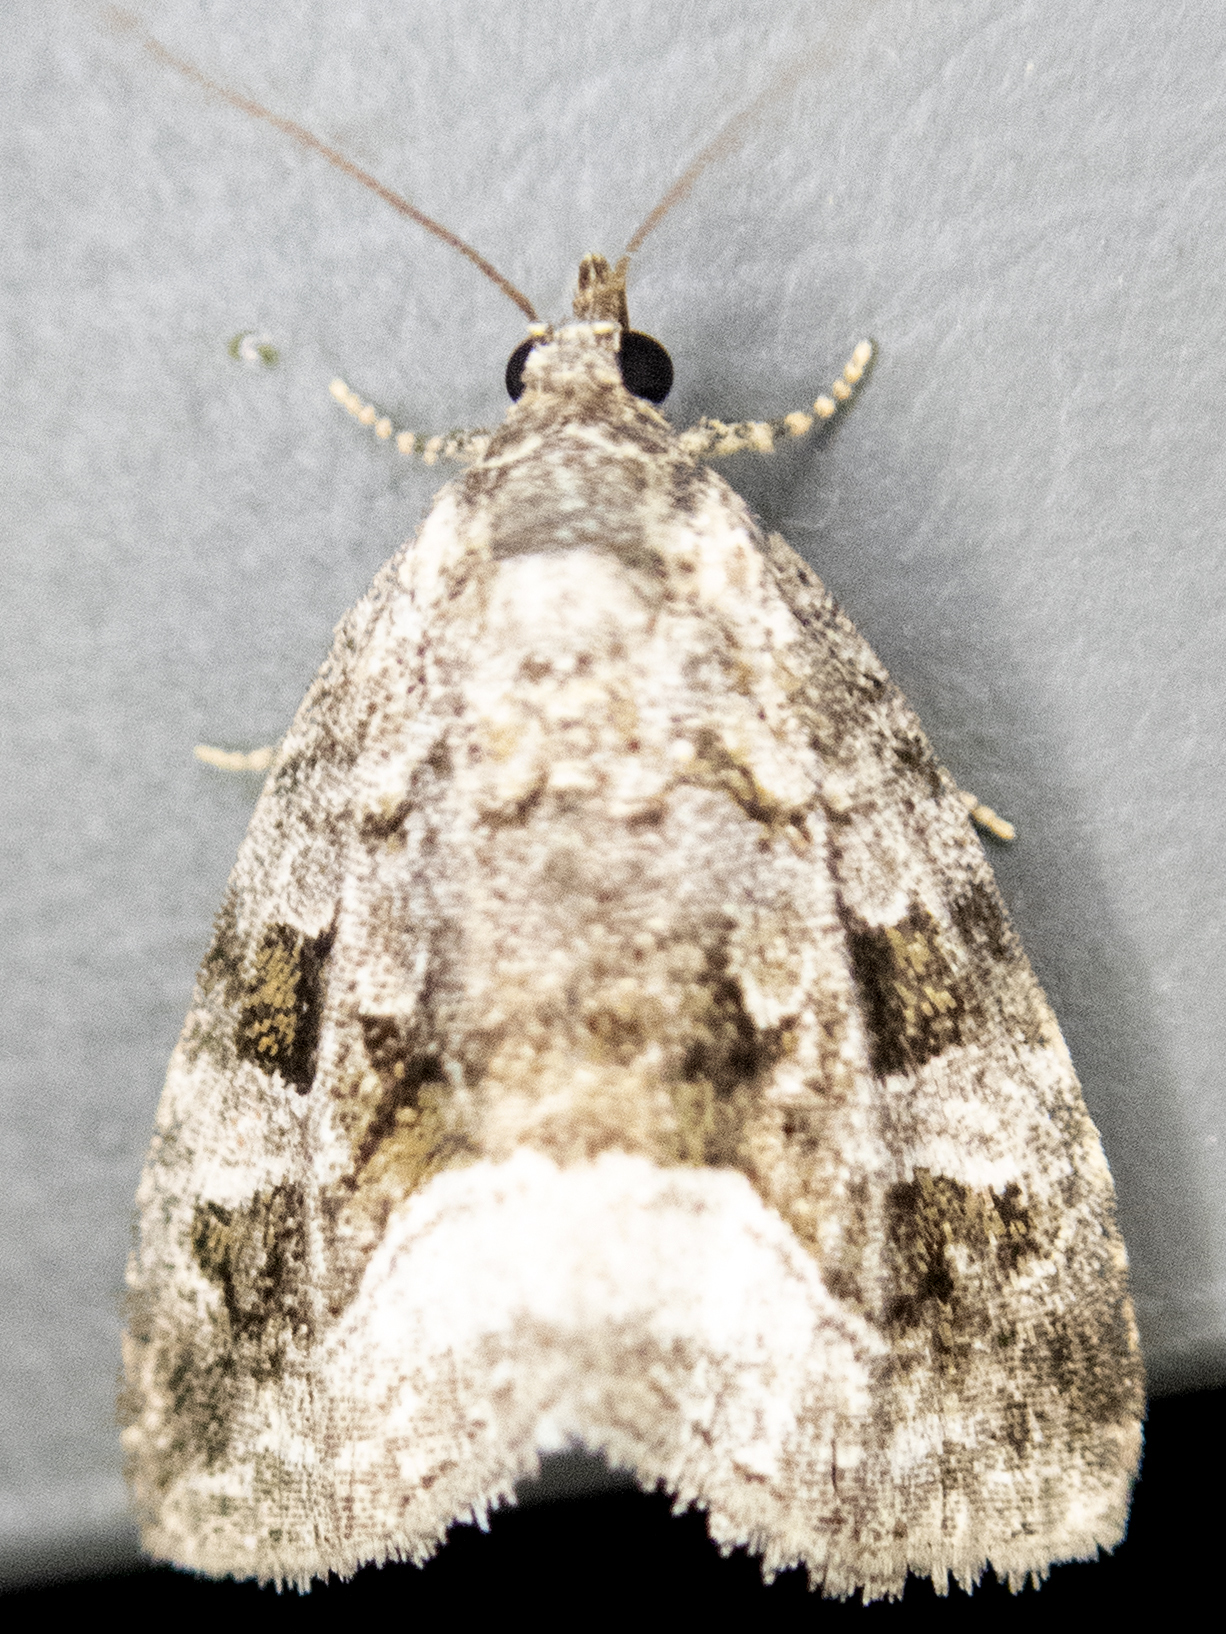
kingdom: Animalia
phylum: Arthropoda
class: Insecta
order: Lepidoptera
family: Noctuidae
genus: Protodeltote
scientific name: Protodeltote muscosula
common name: Large mossy glyph
